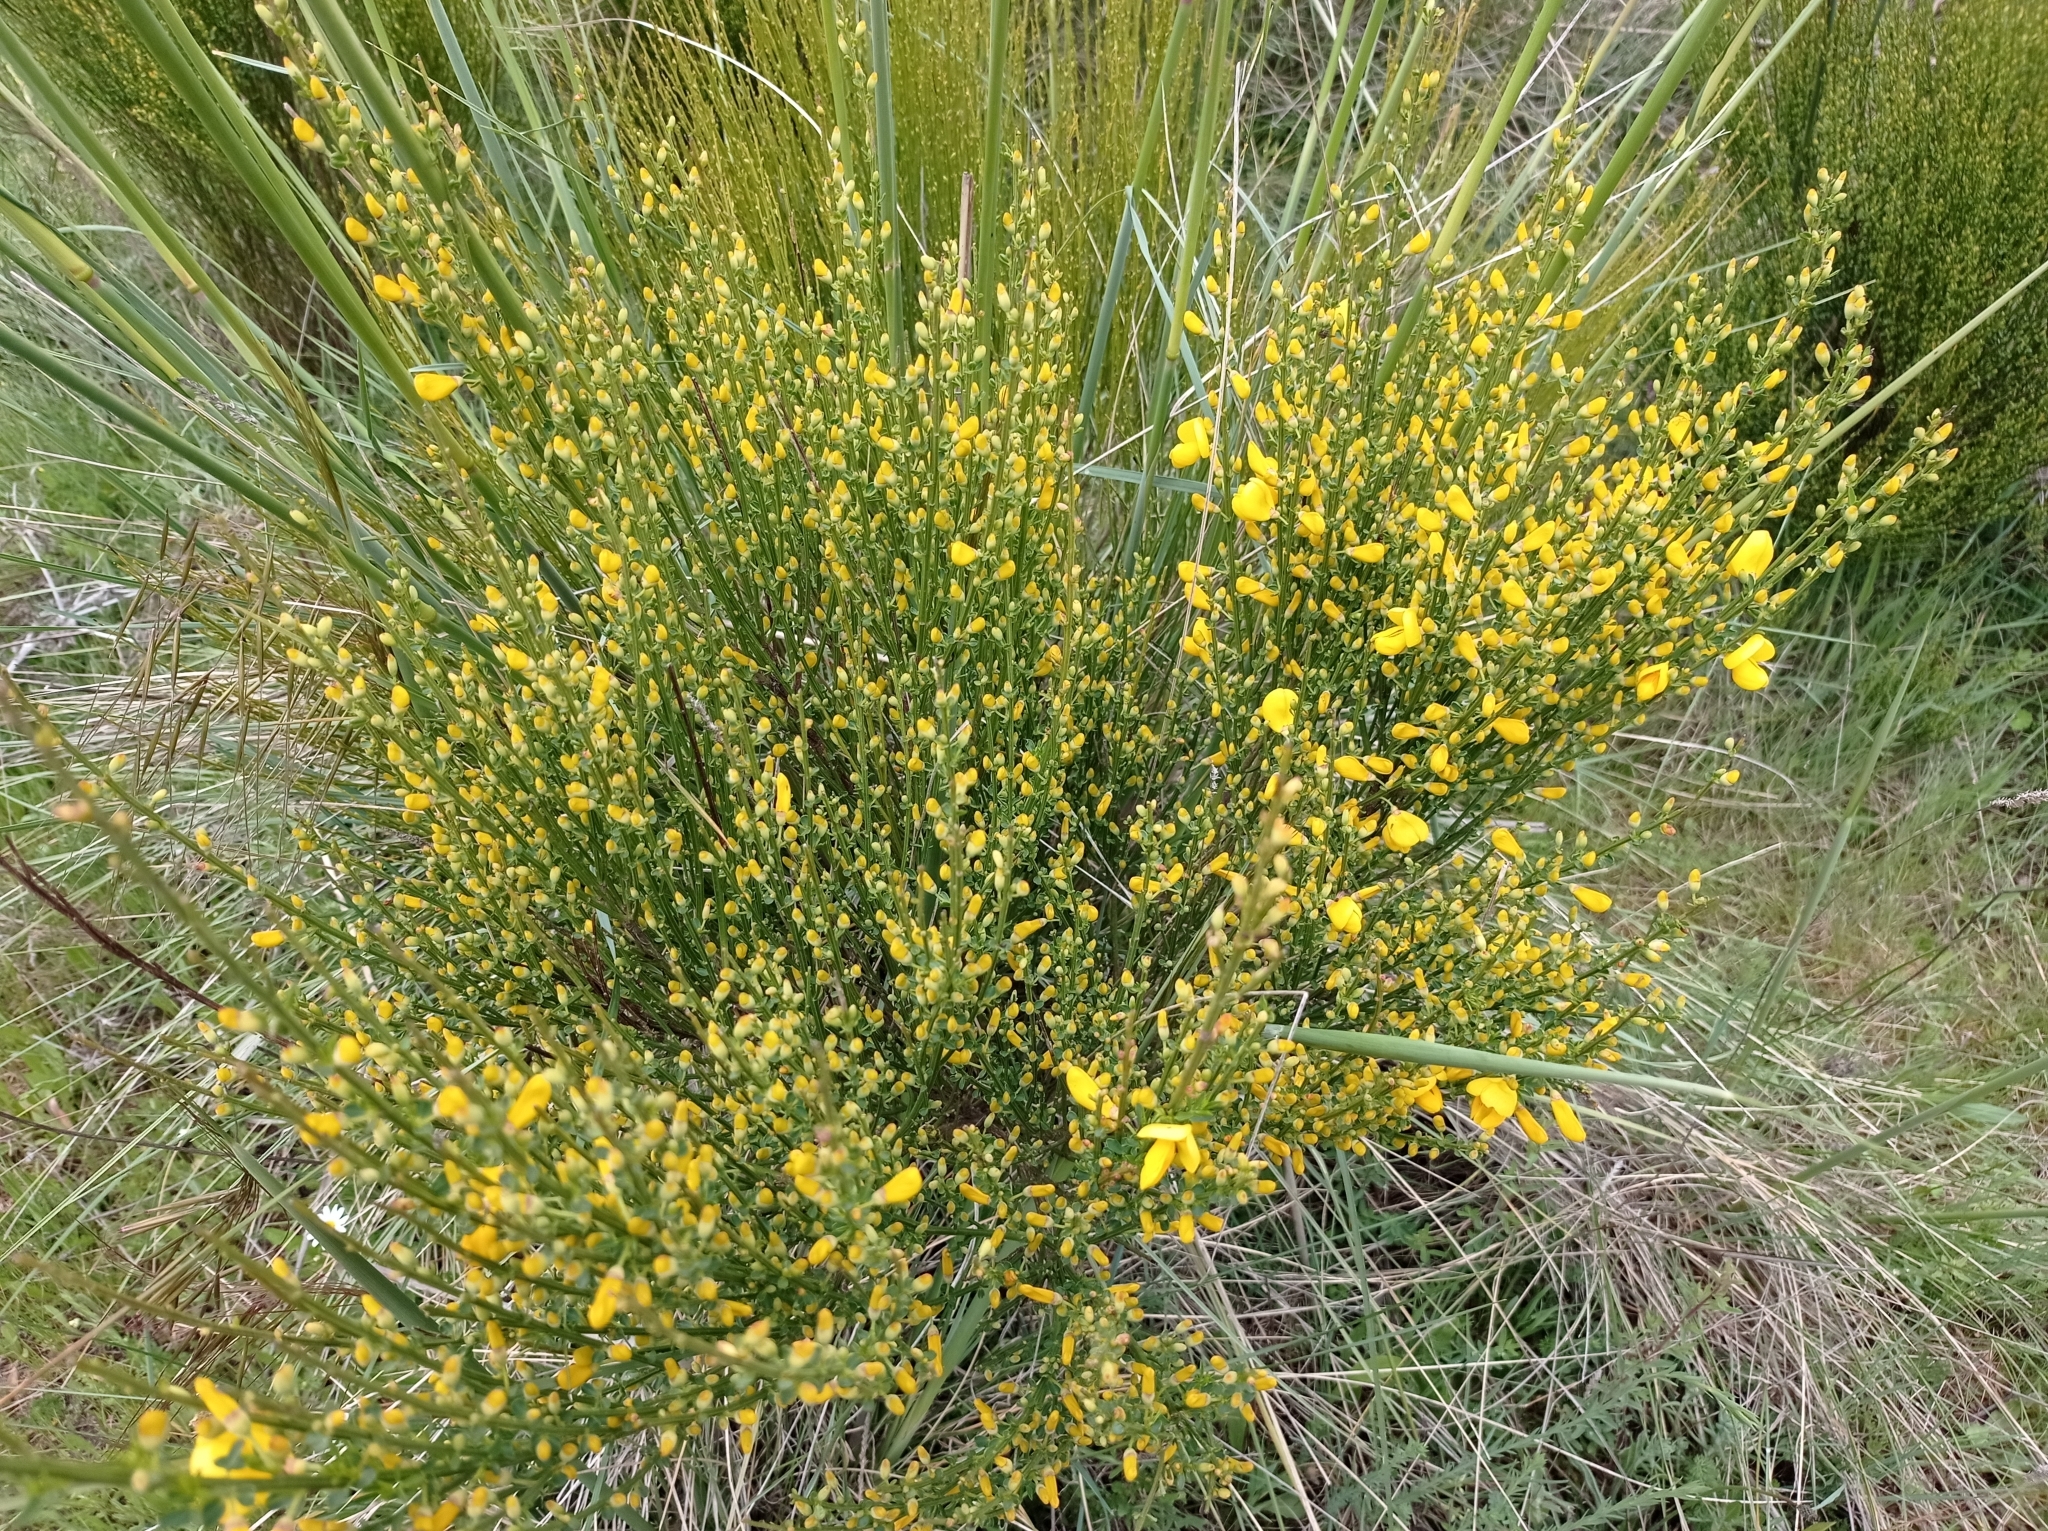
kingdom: Plantae
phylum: Tracheophyta
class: Magnoliopsida
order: Fabales
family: Fabaceae
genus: Cytisus
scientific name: Cytisus scoparius
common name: Scotch broom
